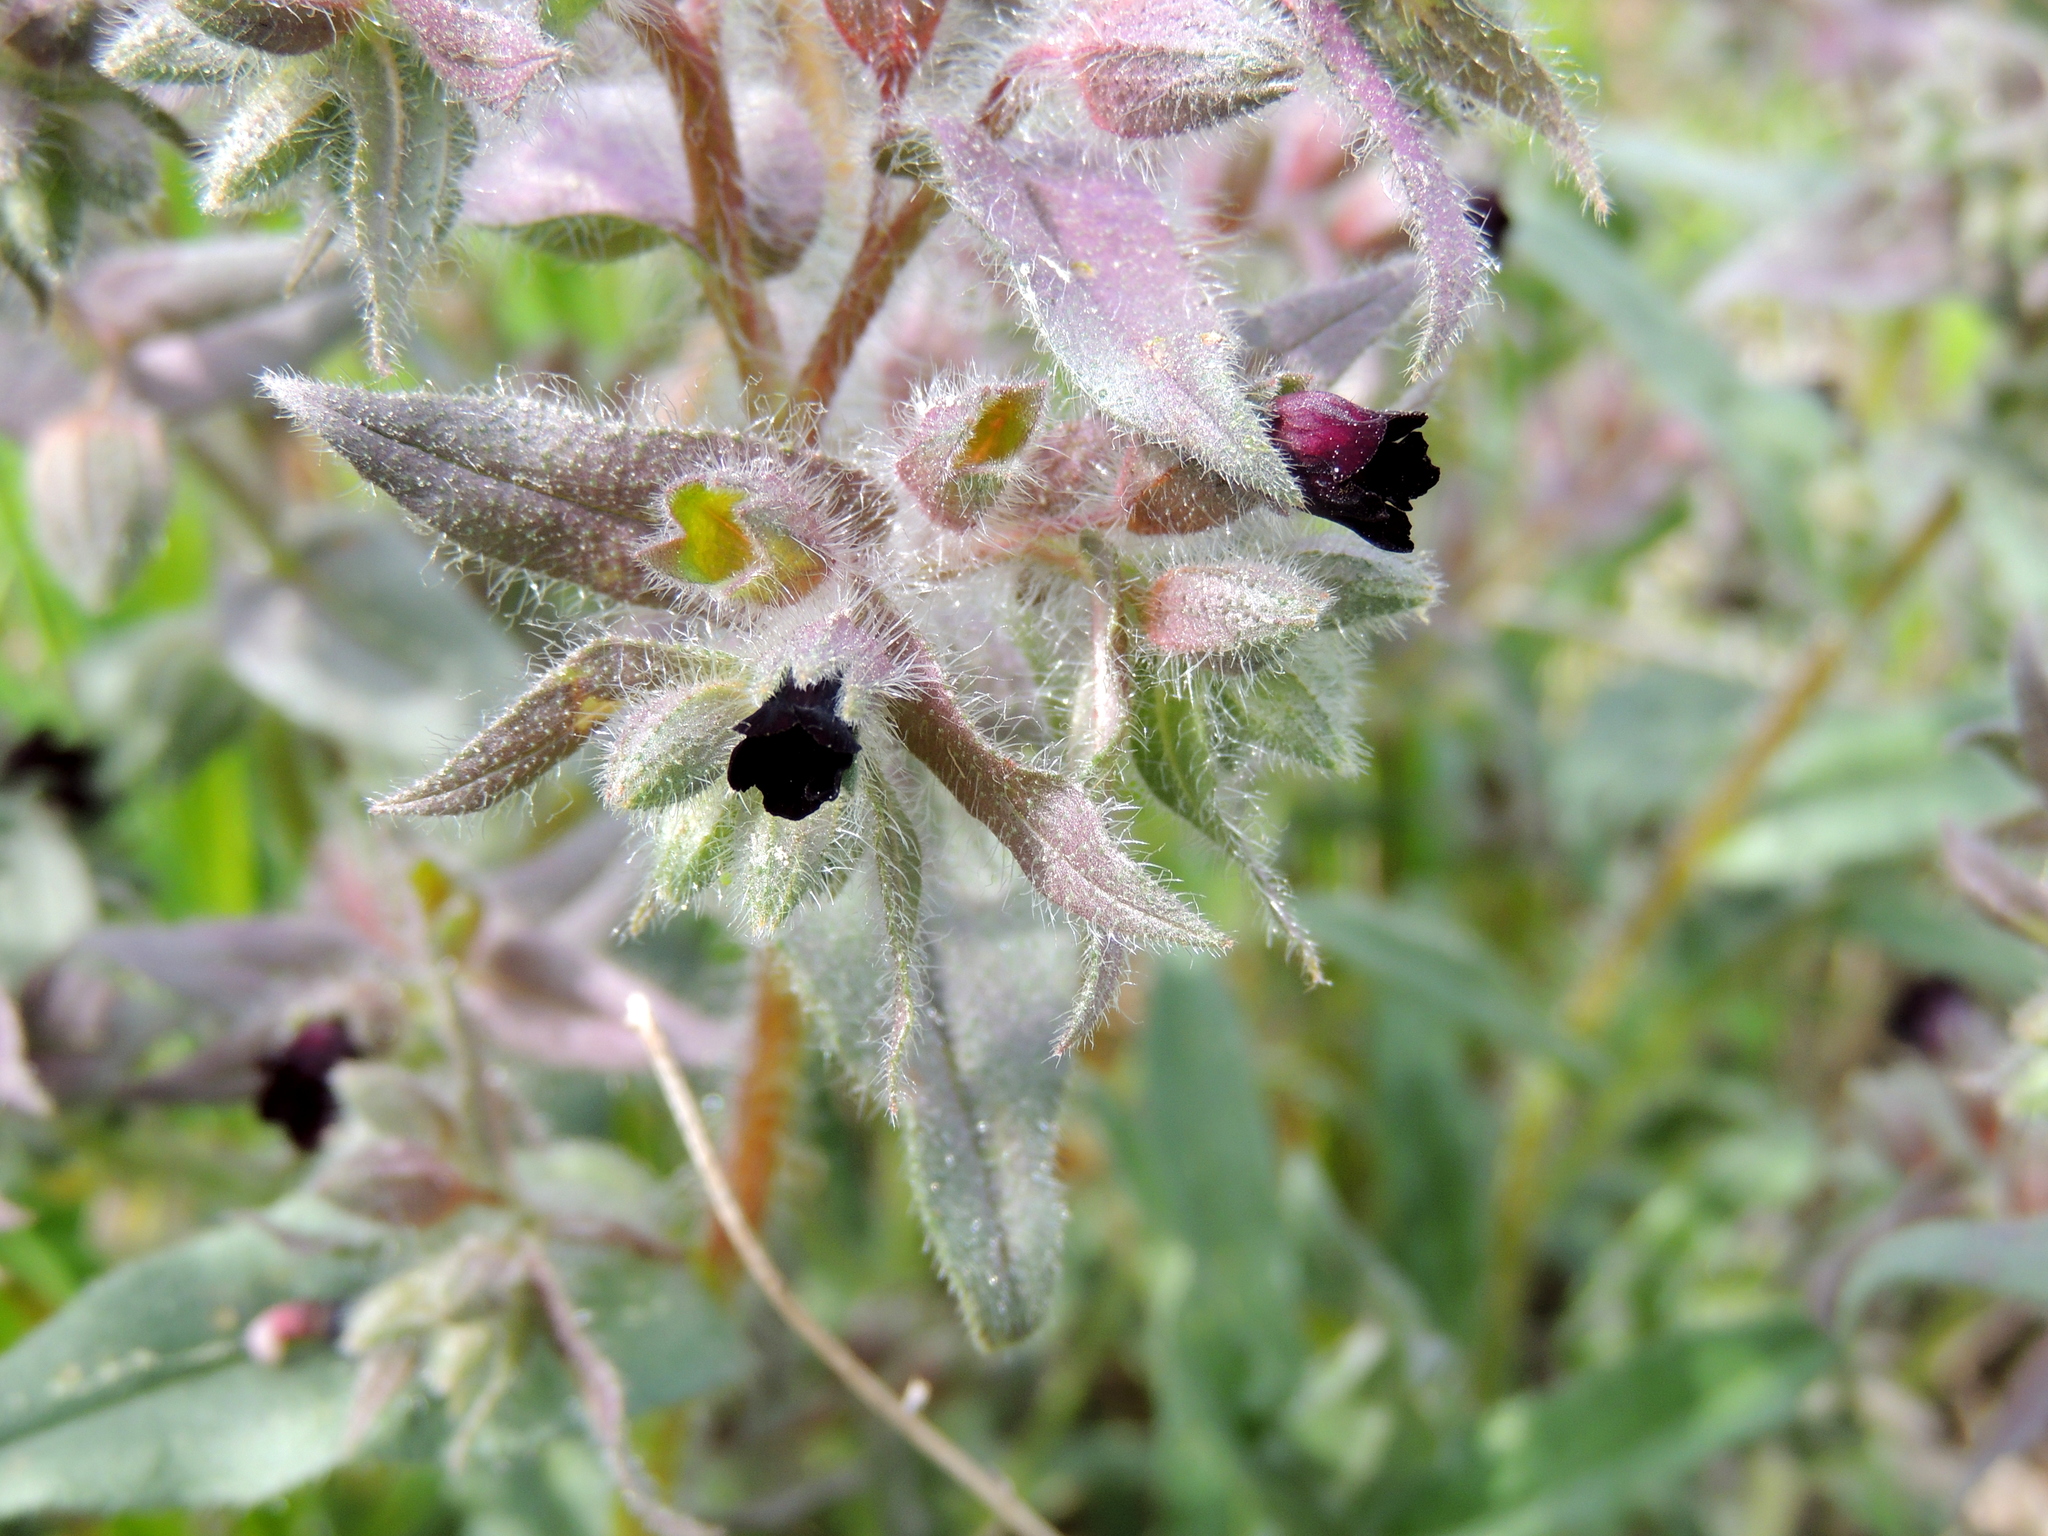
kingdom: Plantae
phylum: Tracheophyta
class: Magnoliopsida
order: Boraginales
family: Boraginaceae
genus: Nonea
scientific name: Nonea pulla
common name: Brown nonea
